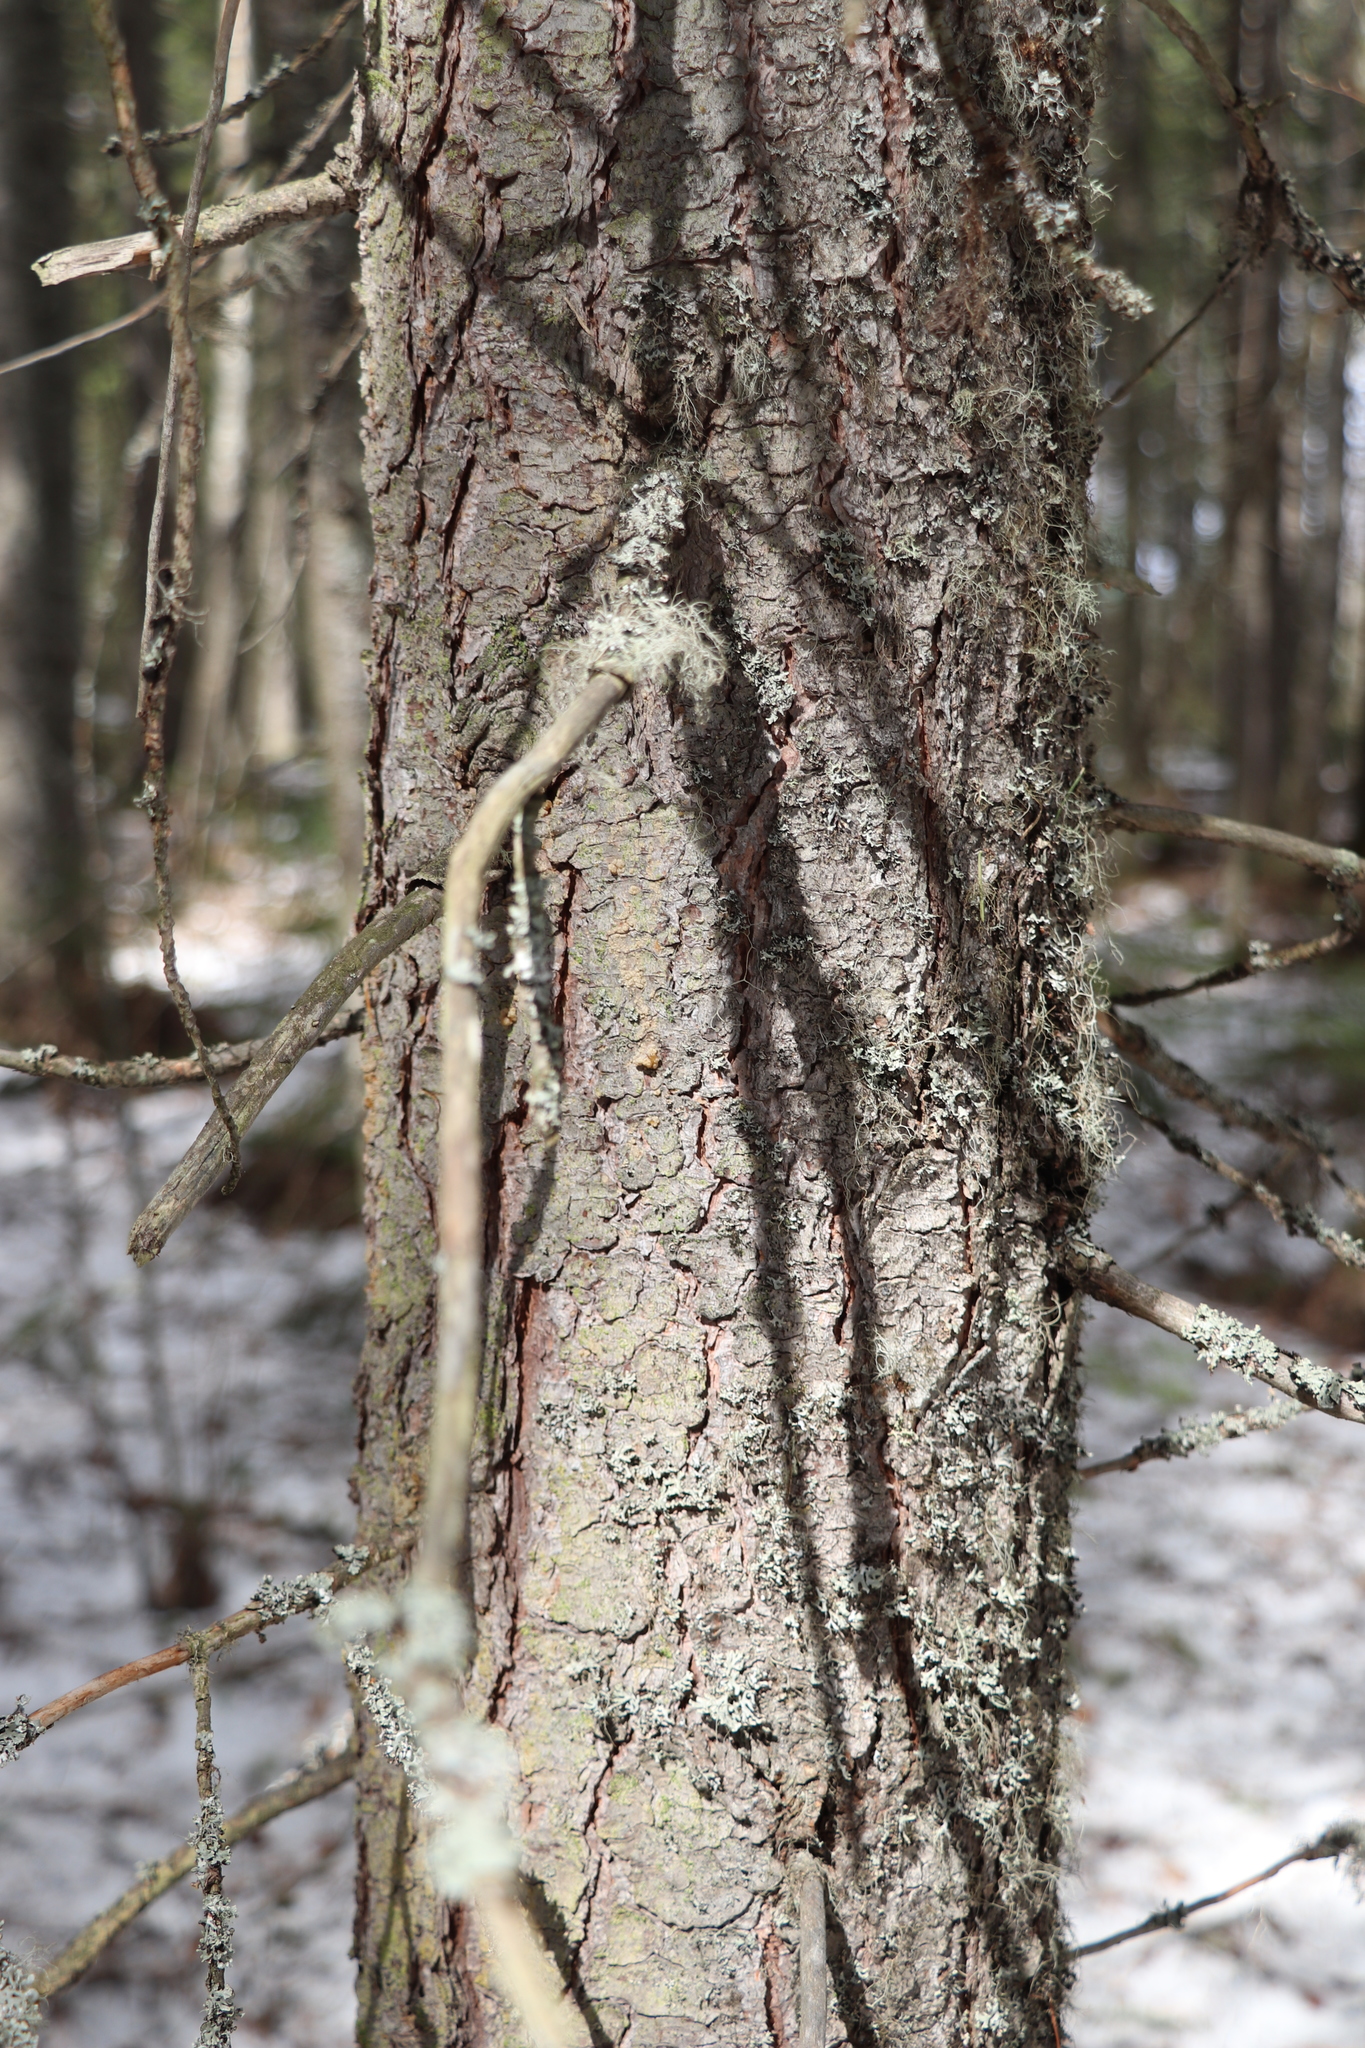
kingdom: Plantae
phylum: Tracheophyta
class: Pinopsida
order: Pinales
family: Pinaceae
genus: Pinus
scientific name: Pinus sibirica
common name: Siberian pine
